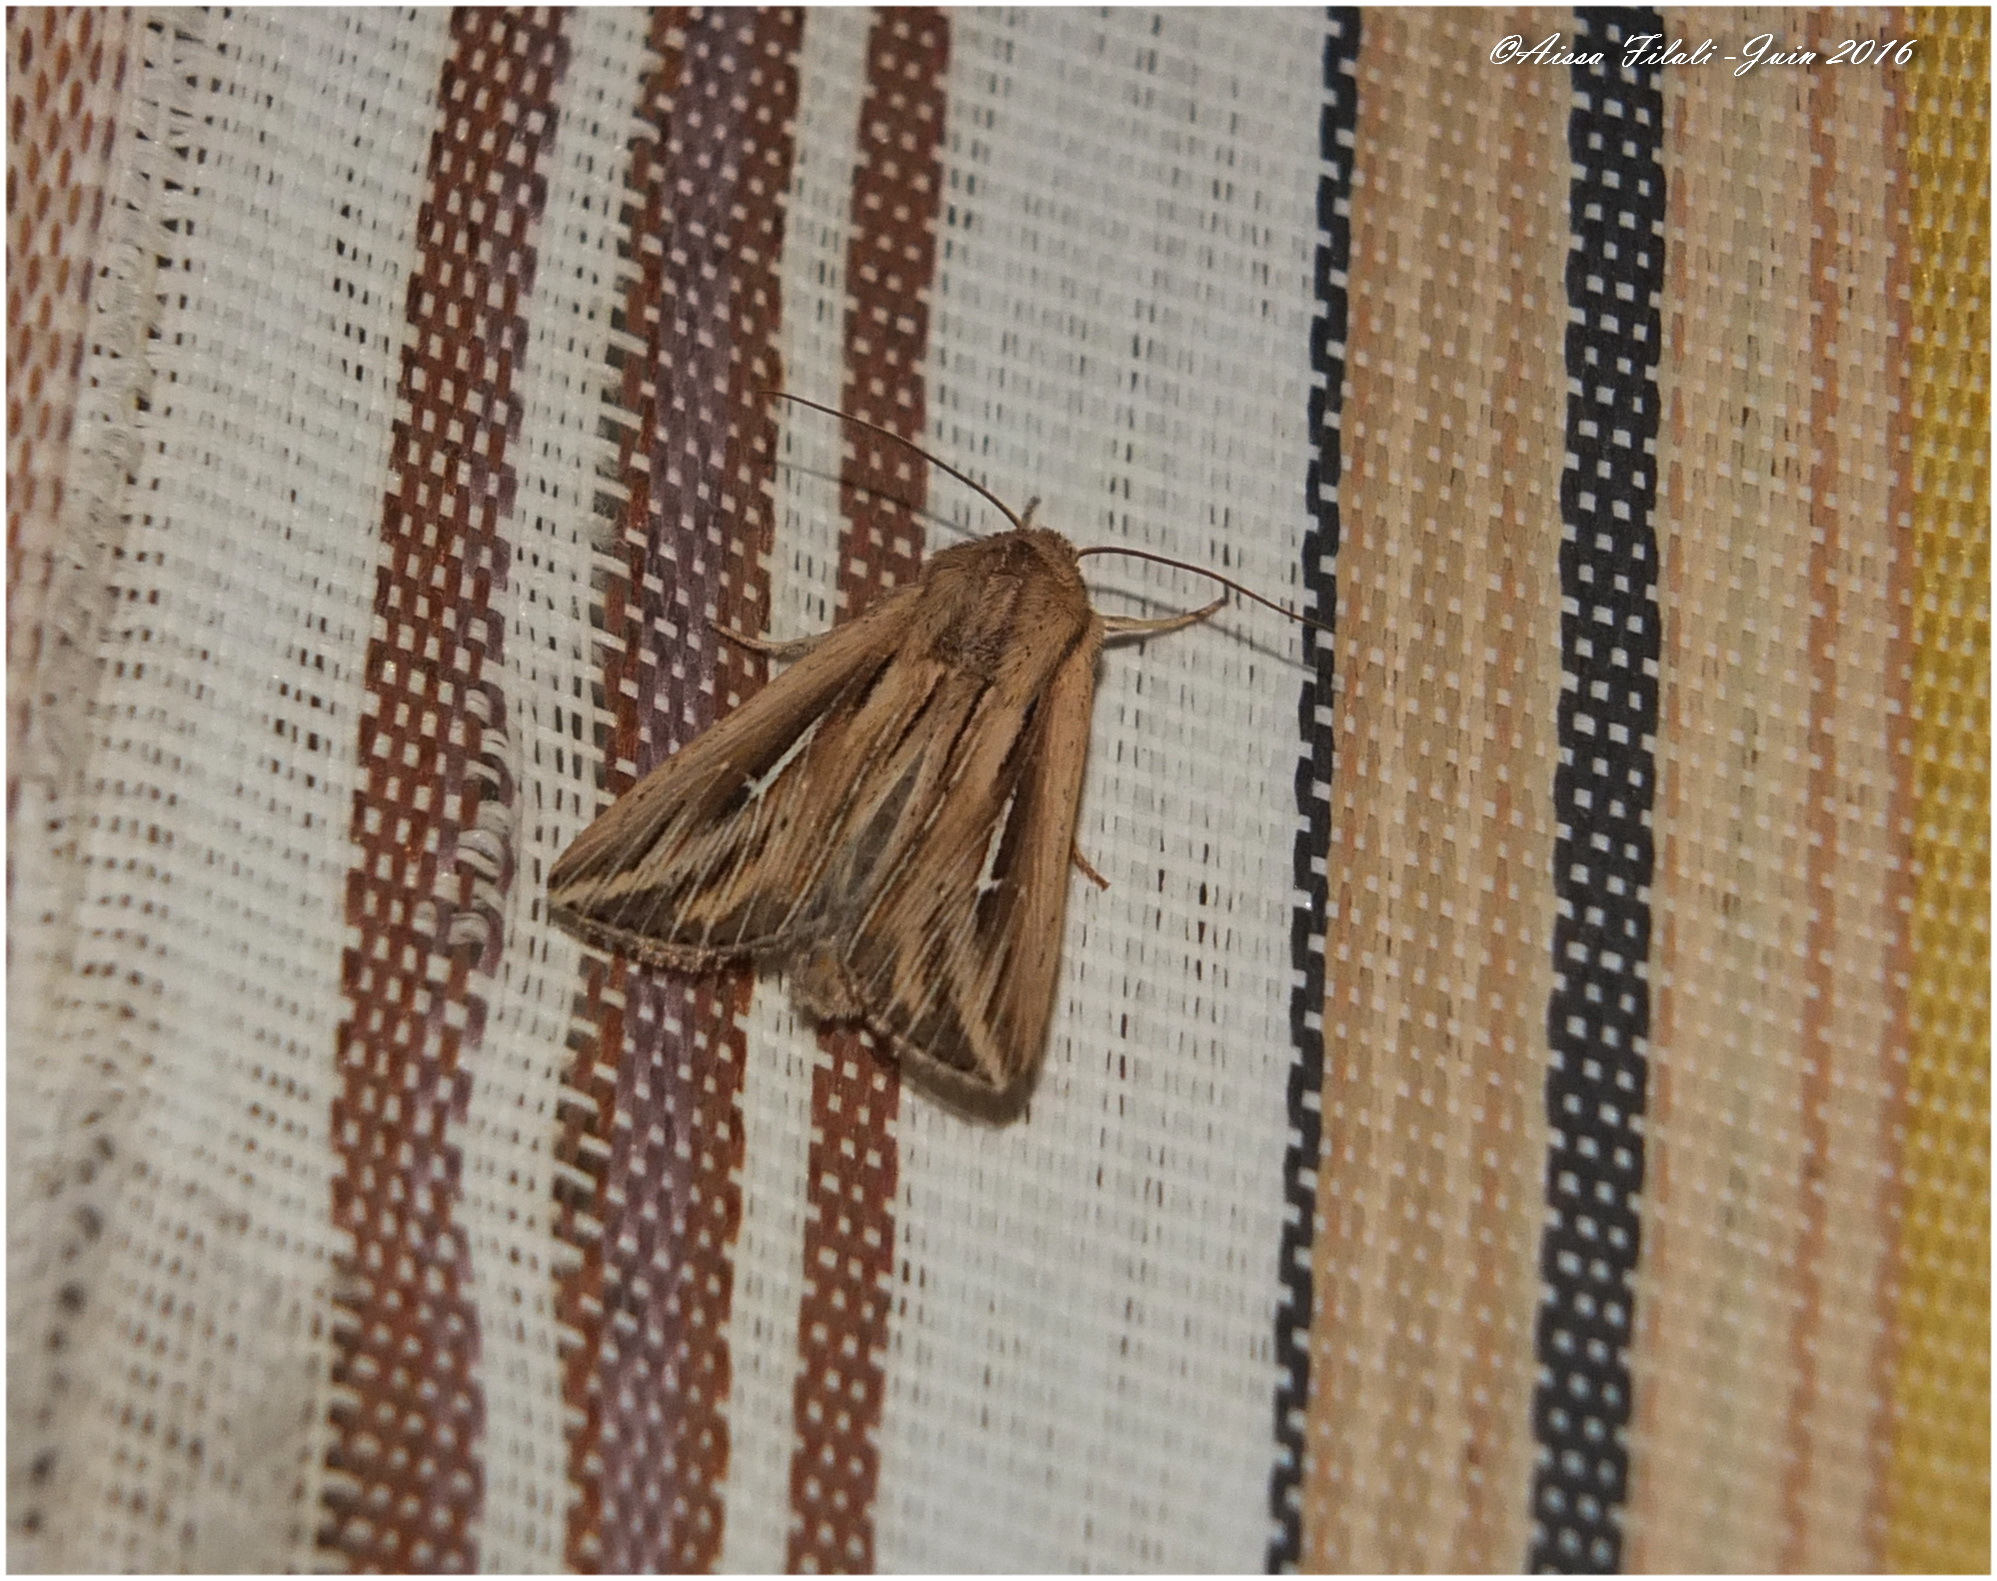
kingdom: Animalia
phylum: Arthropoda
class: Insecta
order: Lepidoptera
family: Noctuidae
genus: Mythimna
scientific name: Mythimna l-album
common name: L-album wainscot
